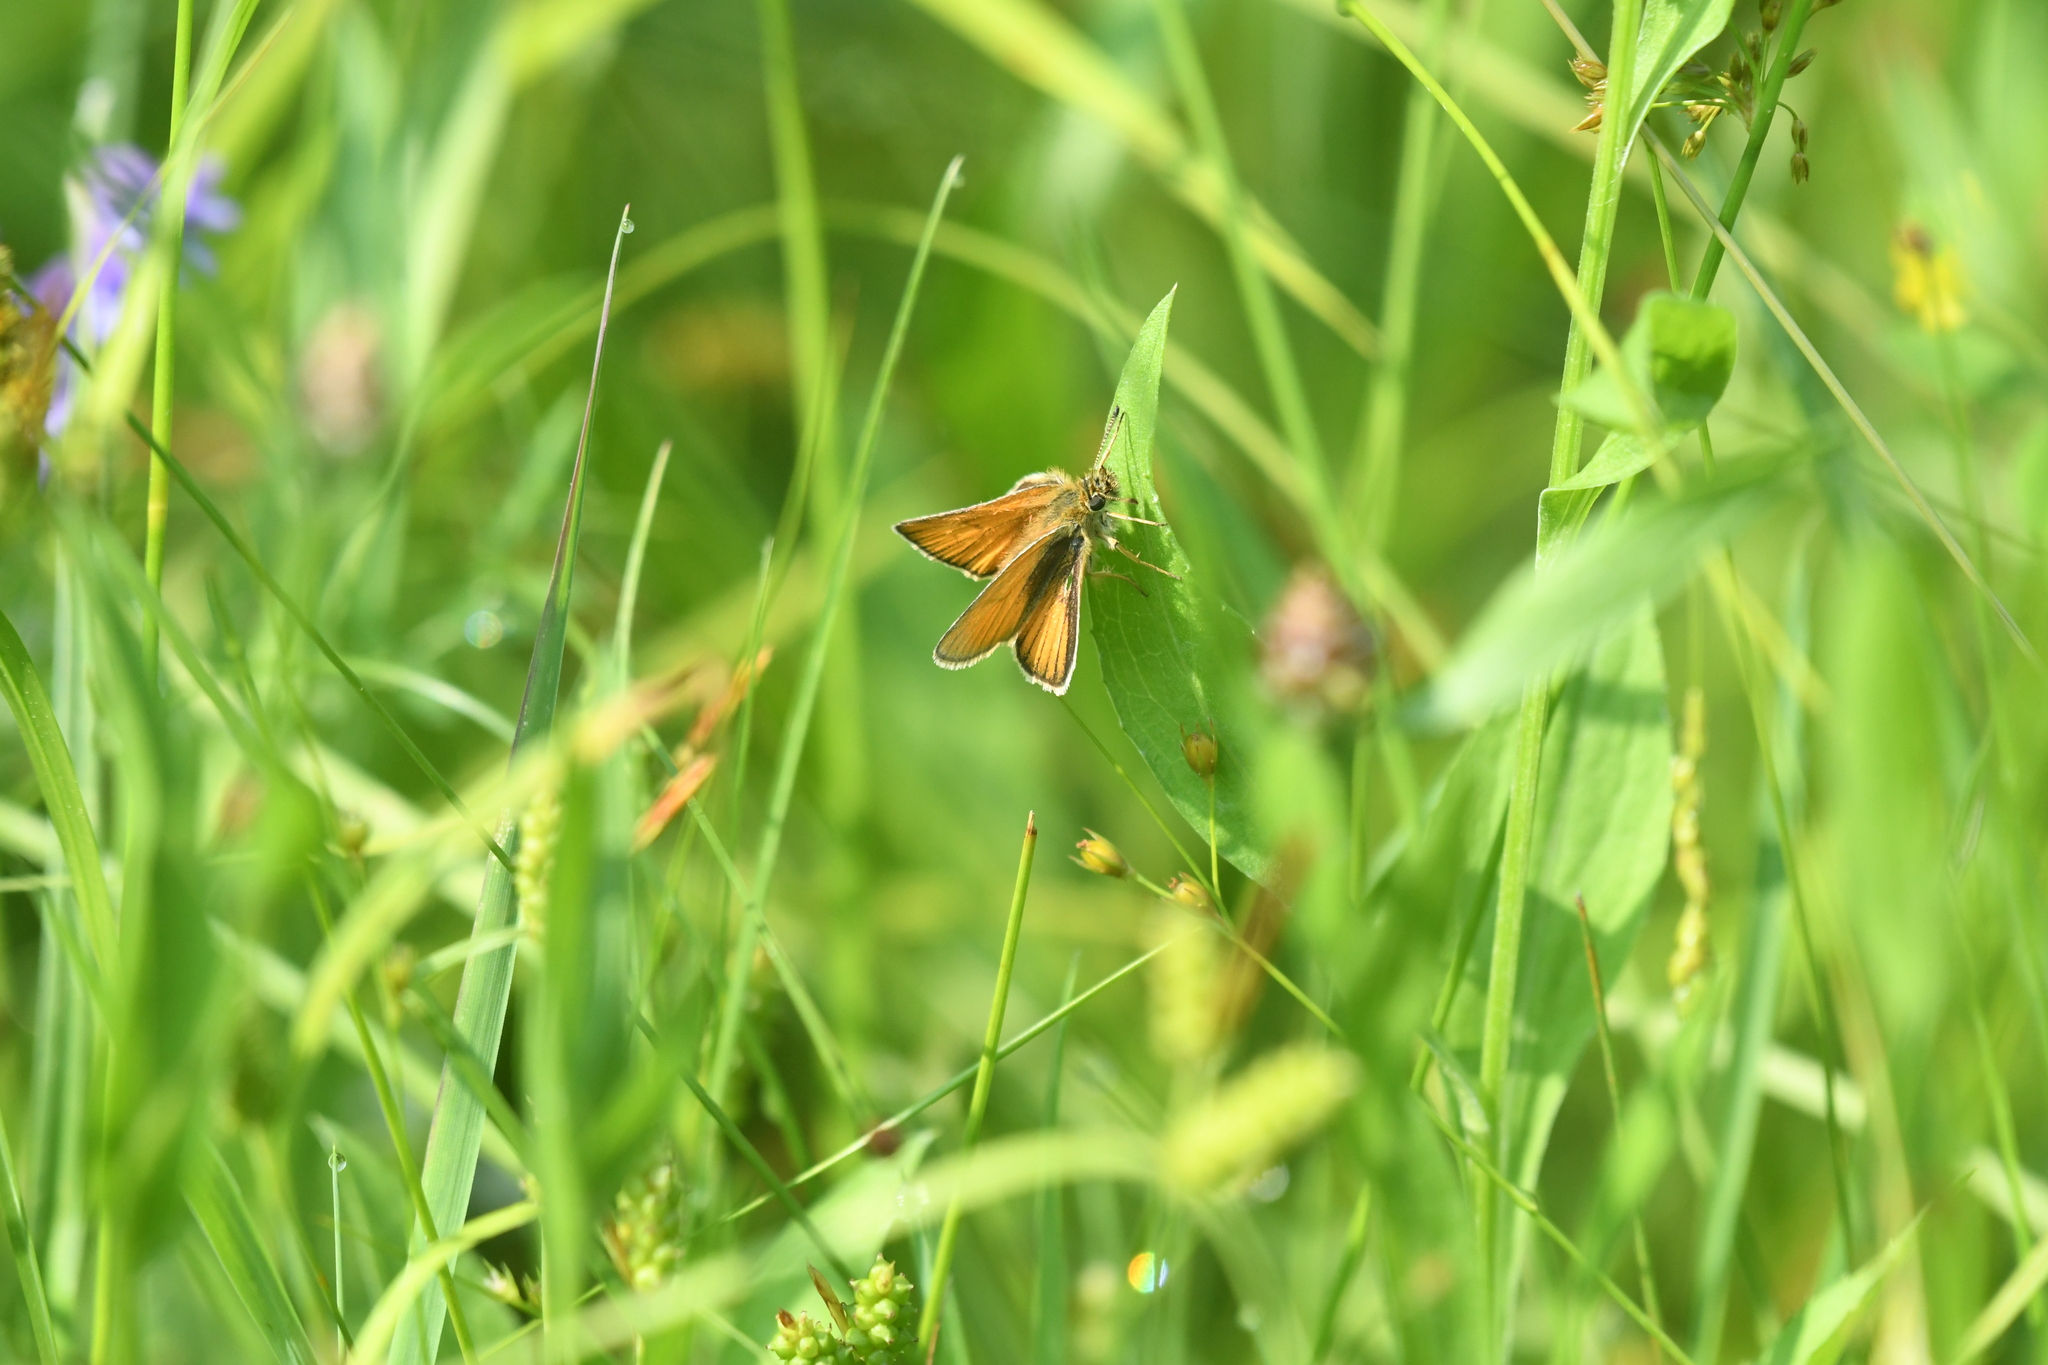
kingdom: Animalia
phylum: Arthropoda
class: Insecta
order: Lepidoptera
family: Hesperiidae
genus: Thymelicus
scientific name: Thymelicus lineola
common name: Essex skipper
